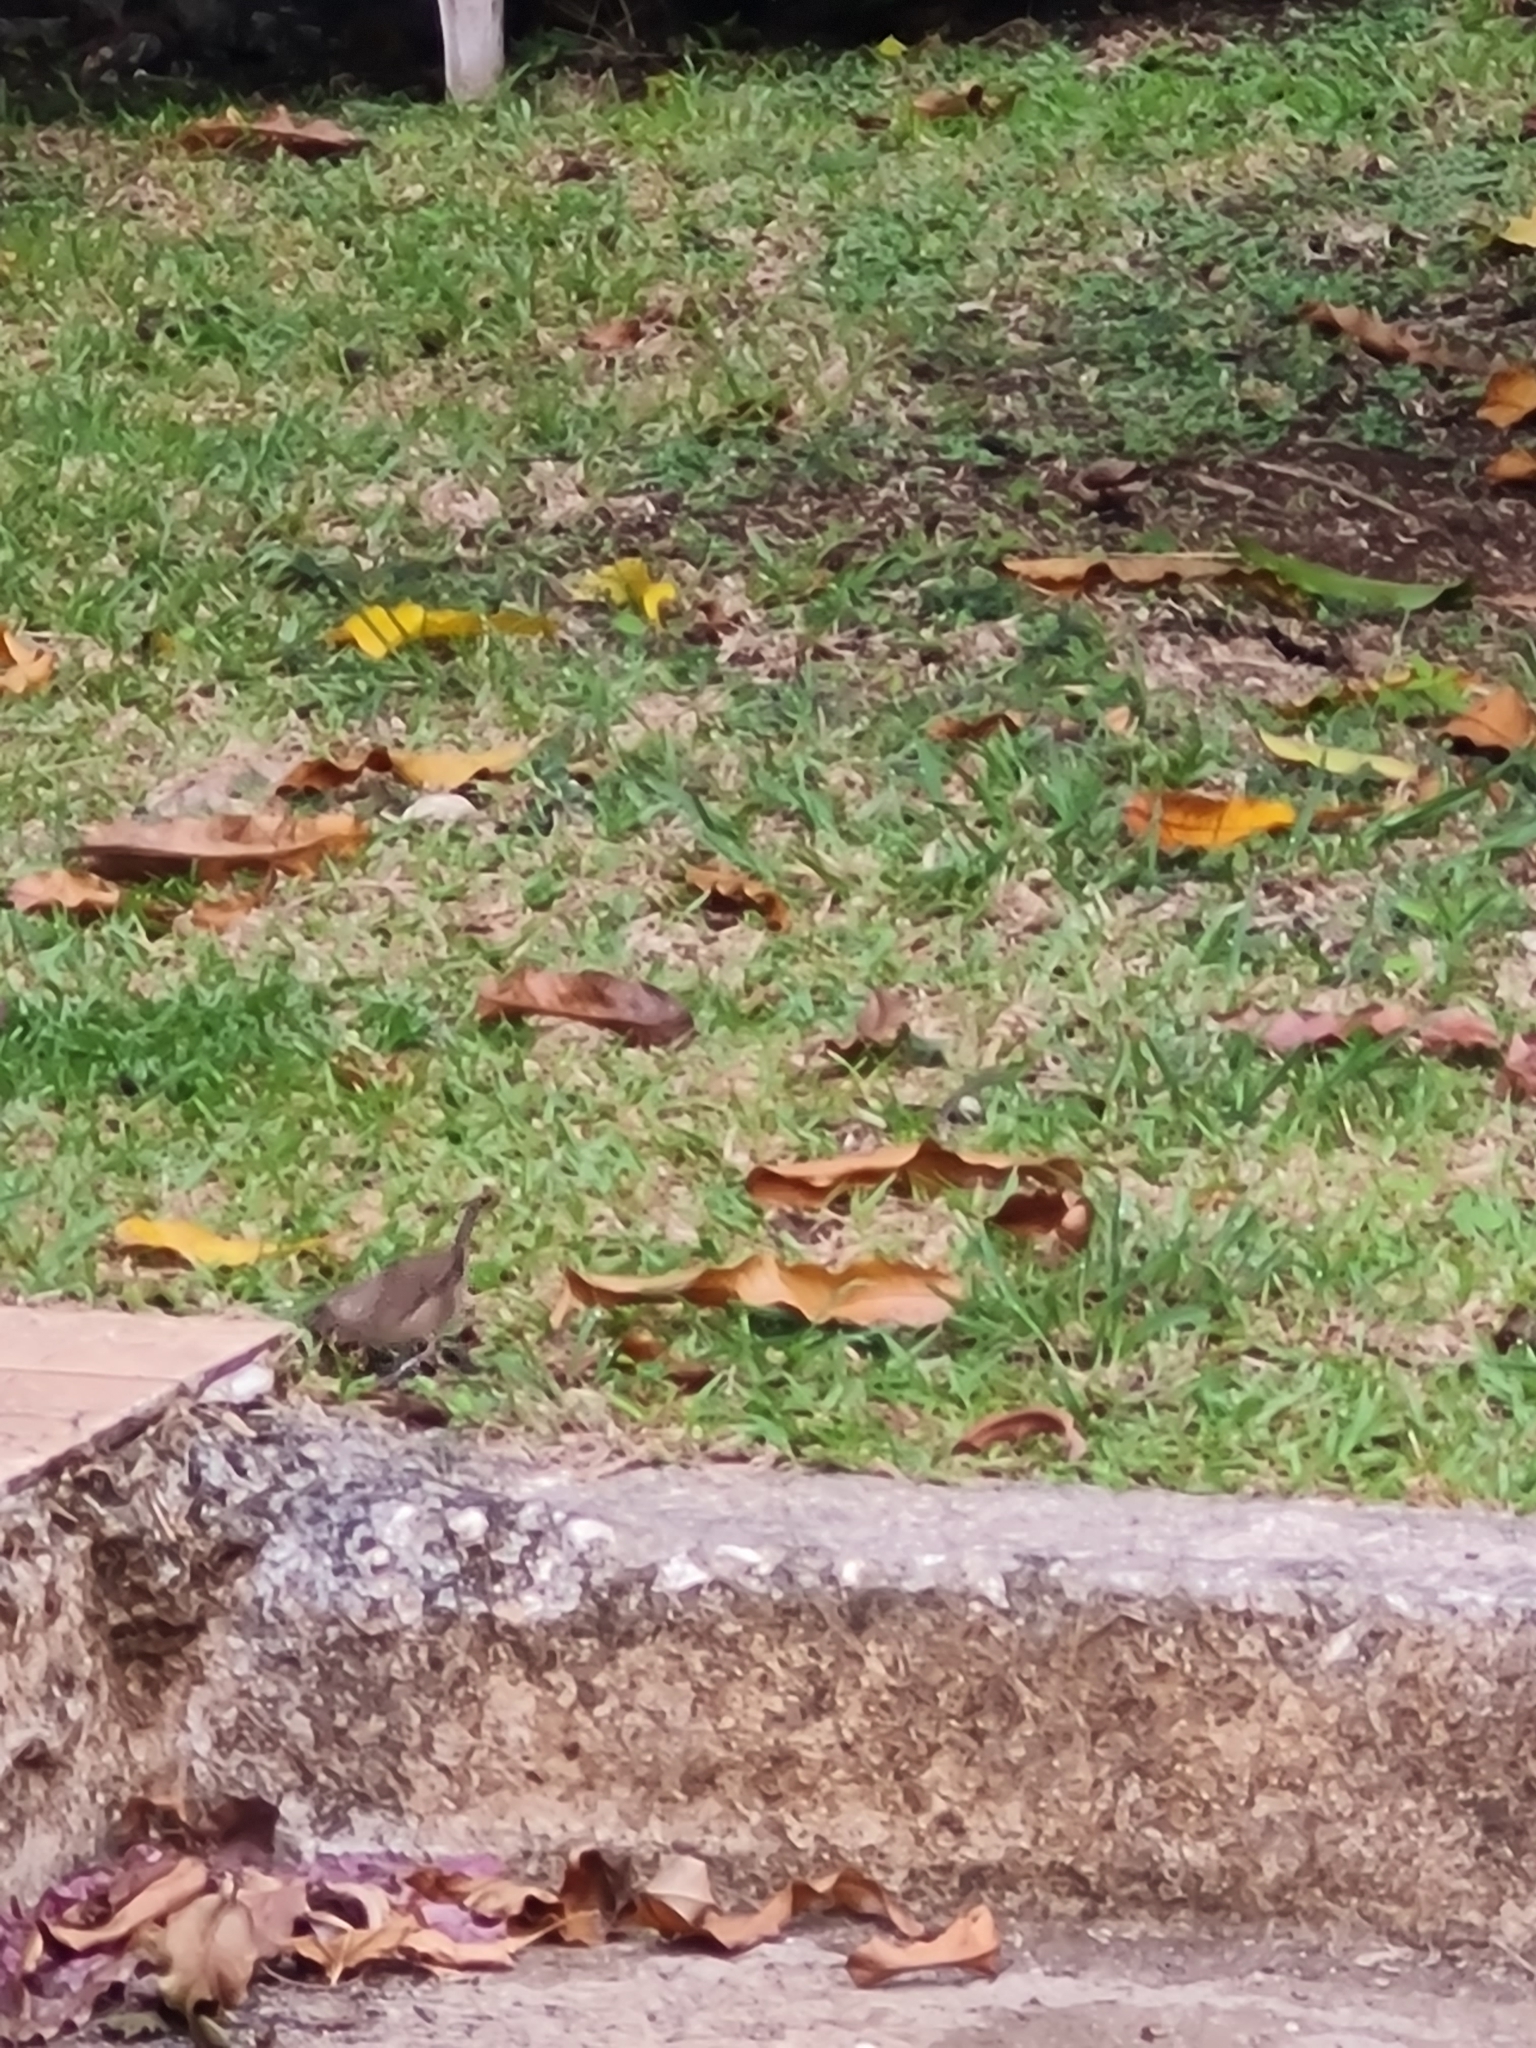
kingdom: Animalia
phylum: Chordata
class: Aves
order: Passeriformes
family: Troglodytidae
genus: Troglodytes
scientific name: Troglodytes aedon
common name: House wren
